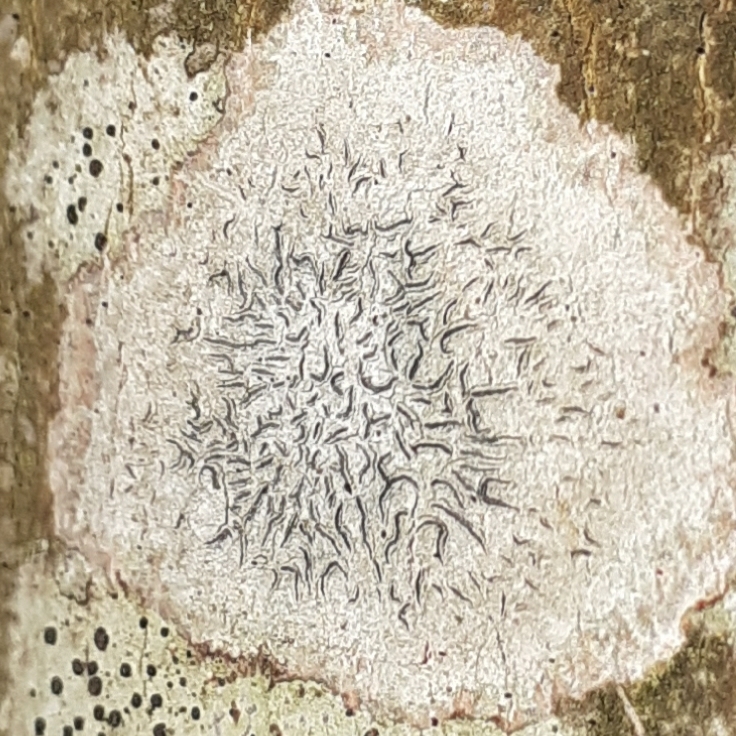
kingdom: Fungi
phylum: Ascomycota
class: Lecanoromycetes
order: Ostropales
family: Graphidaceae
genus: Graphis
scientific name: Graphis scripta
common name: Script lichen
